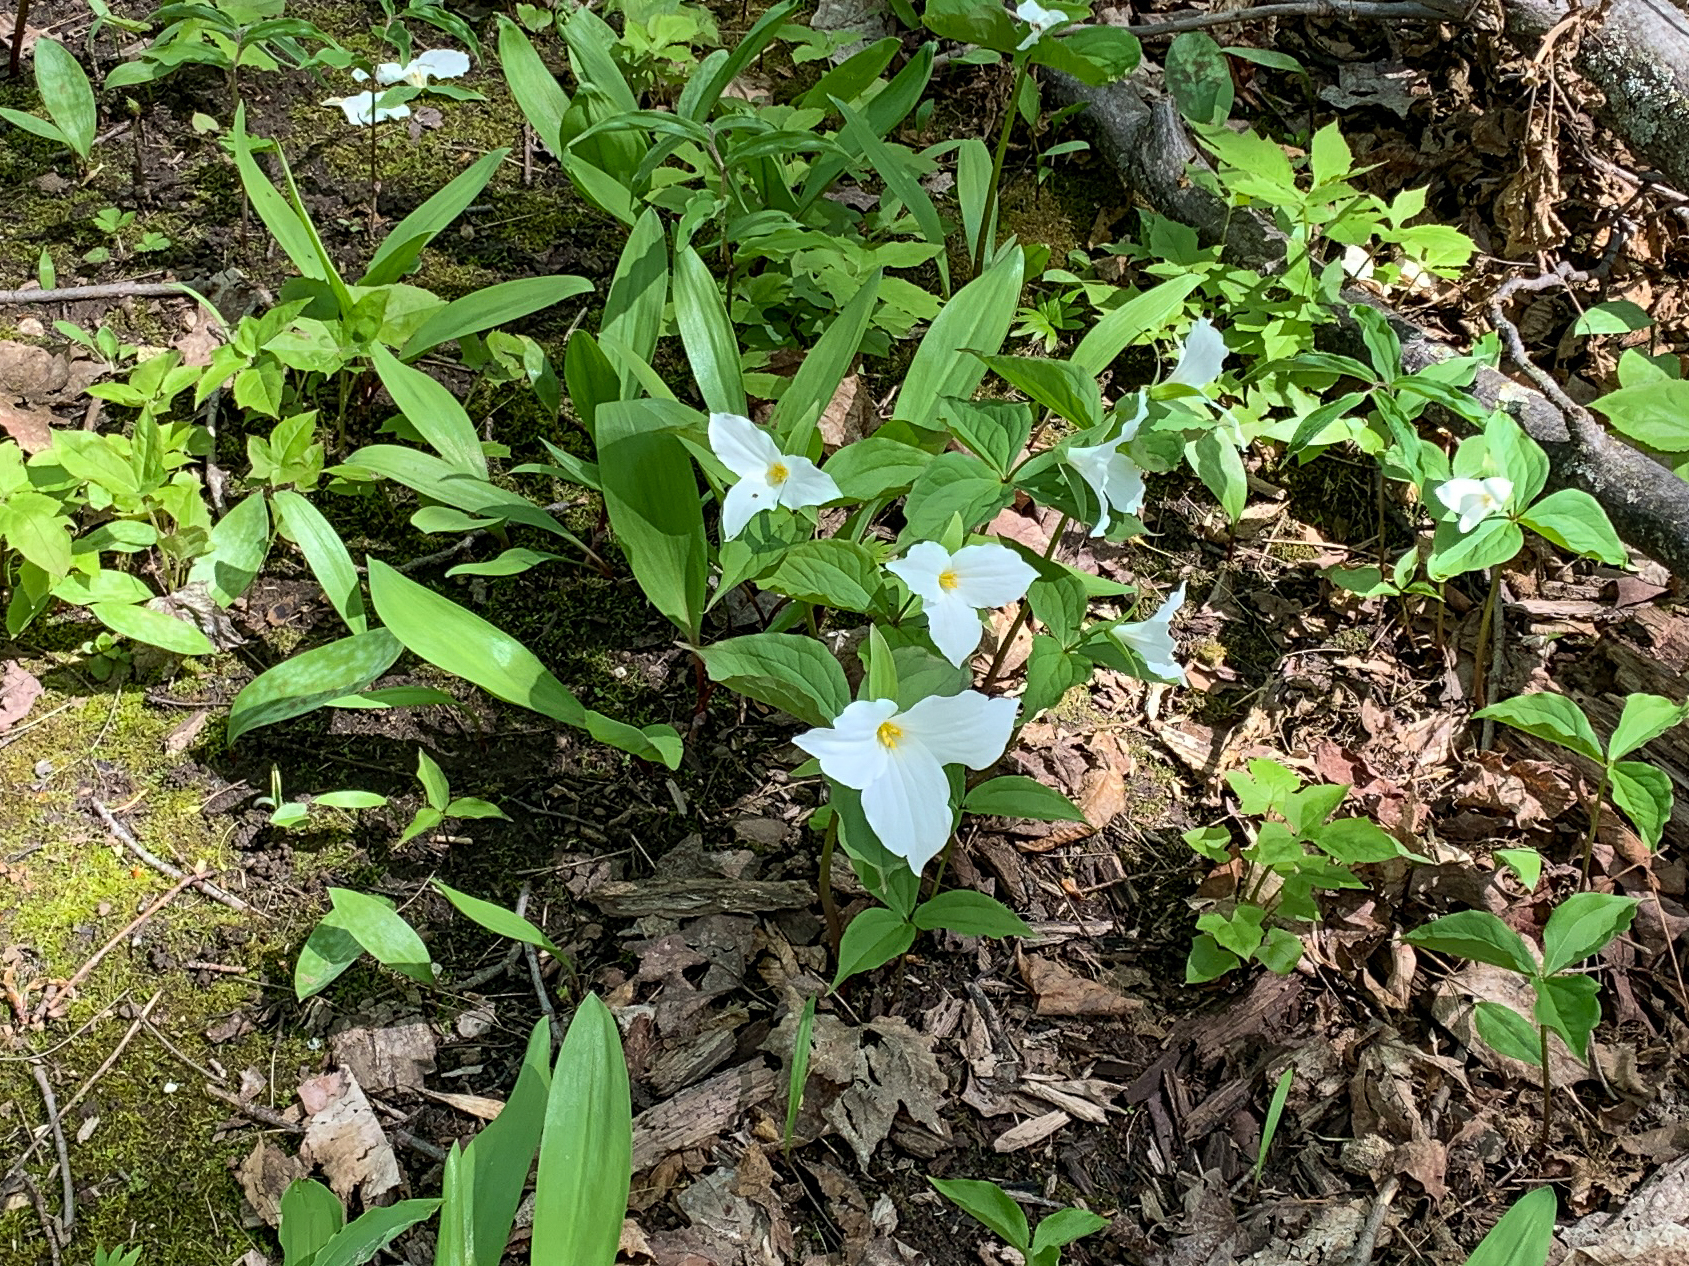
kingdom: Plantae
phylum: Tracheophyta
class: Liliopsida
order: Liliales
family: Melanthiaceae
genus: Trillium
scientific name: Trillium grandiflorum
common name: Great white trillium
